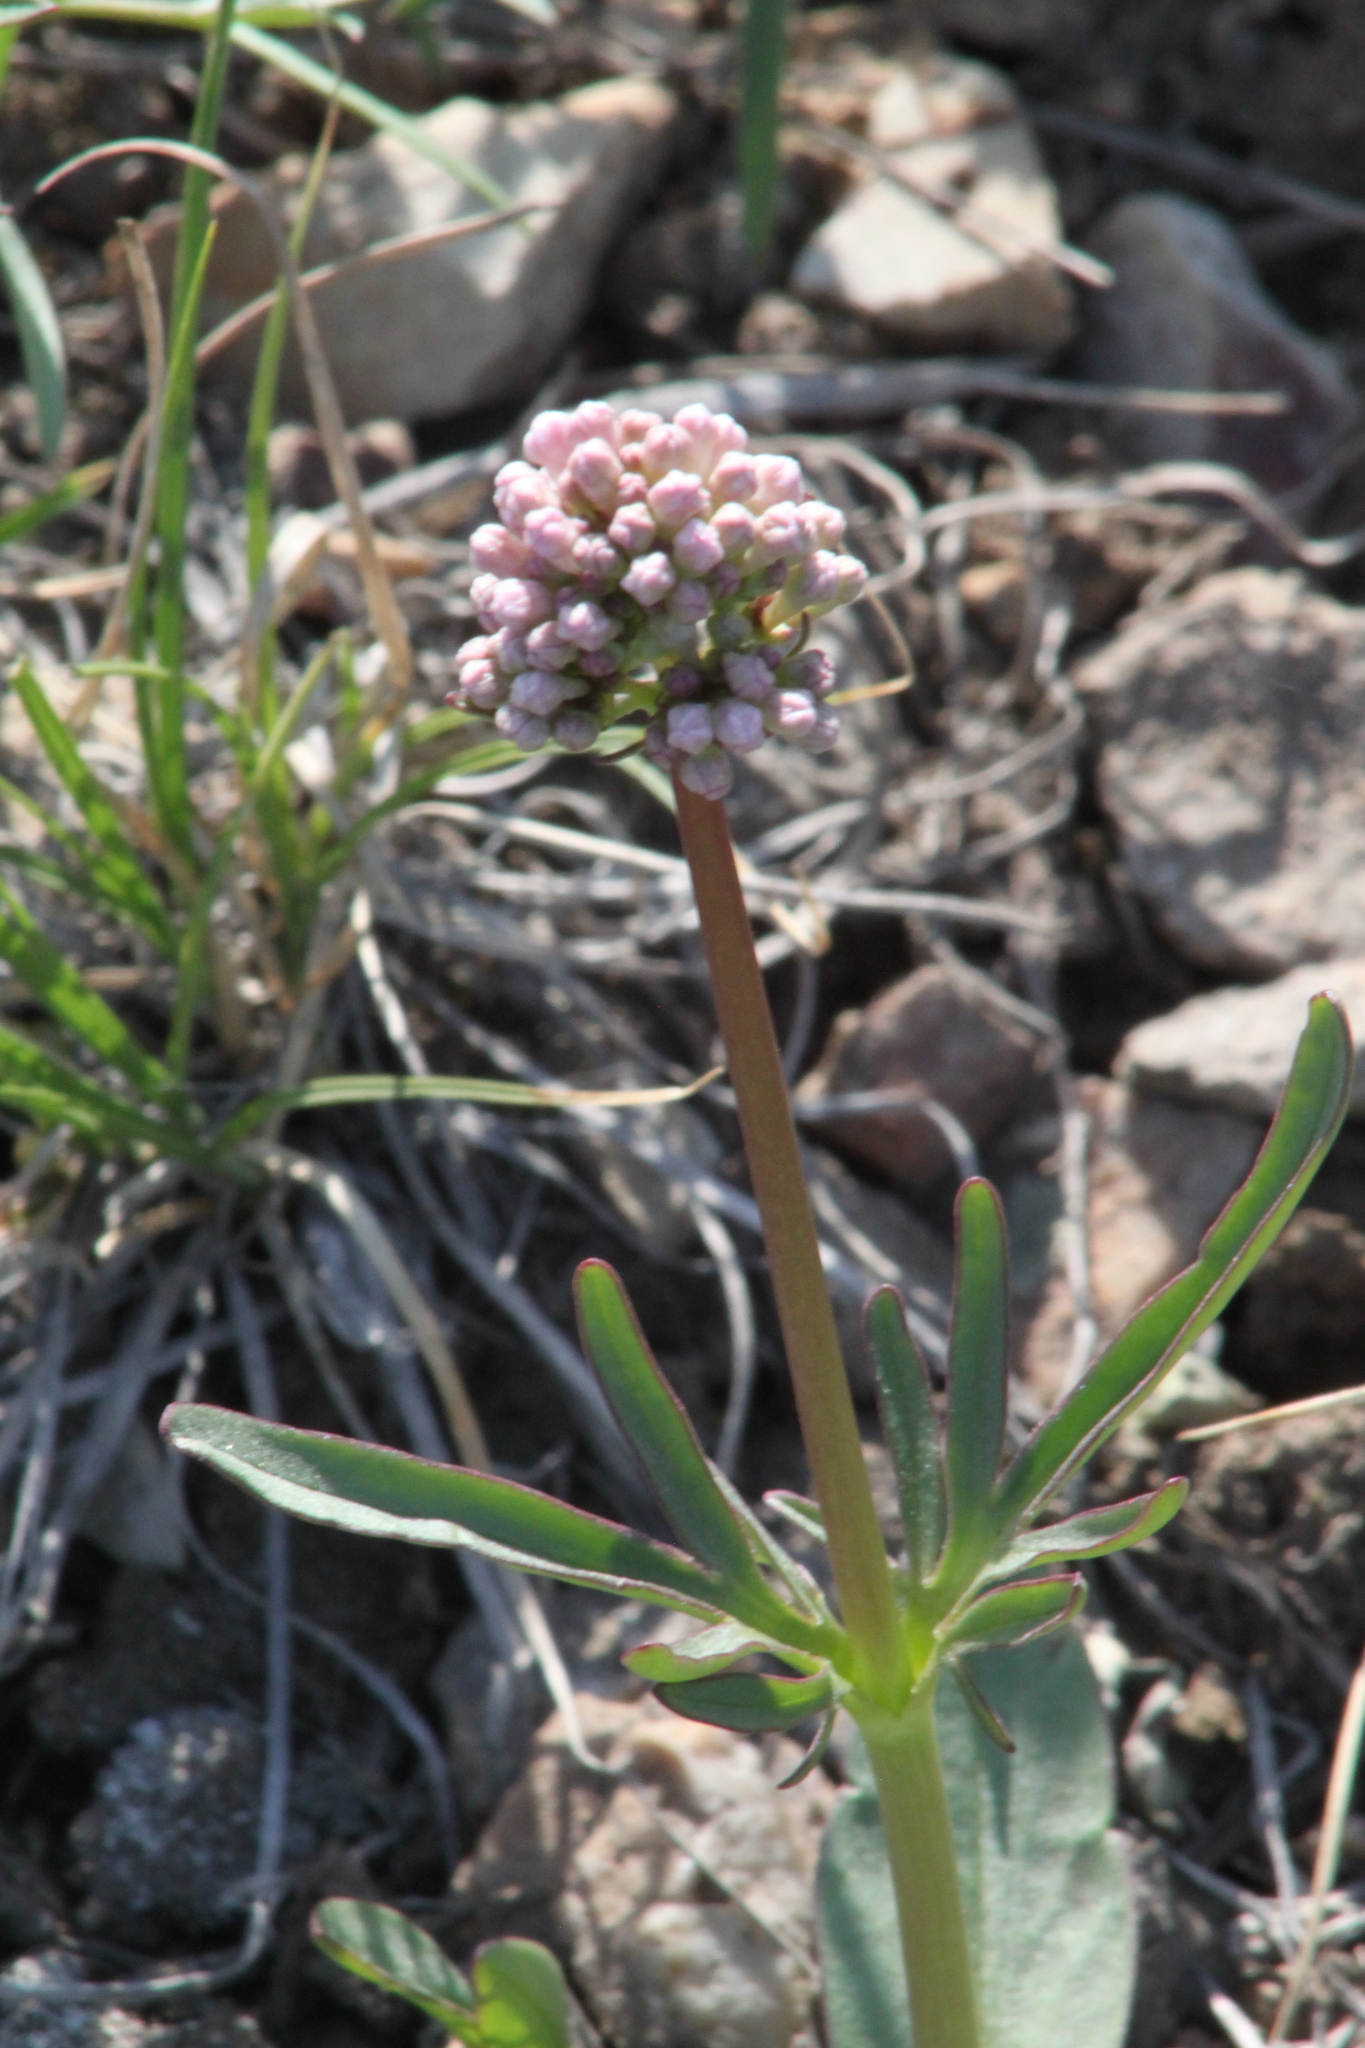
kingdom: Plantae
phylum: Tracheophyta
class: Magnoliopsida
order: Dipsacales
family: Caprifoliaceae
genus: Valeriana
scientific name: Valeriana tuberosa
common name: Tuberous valerian
